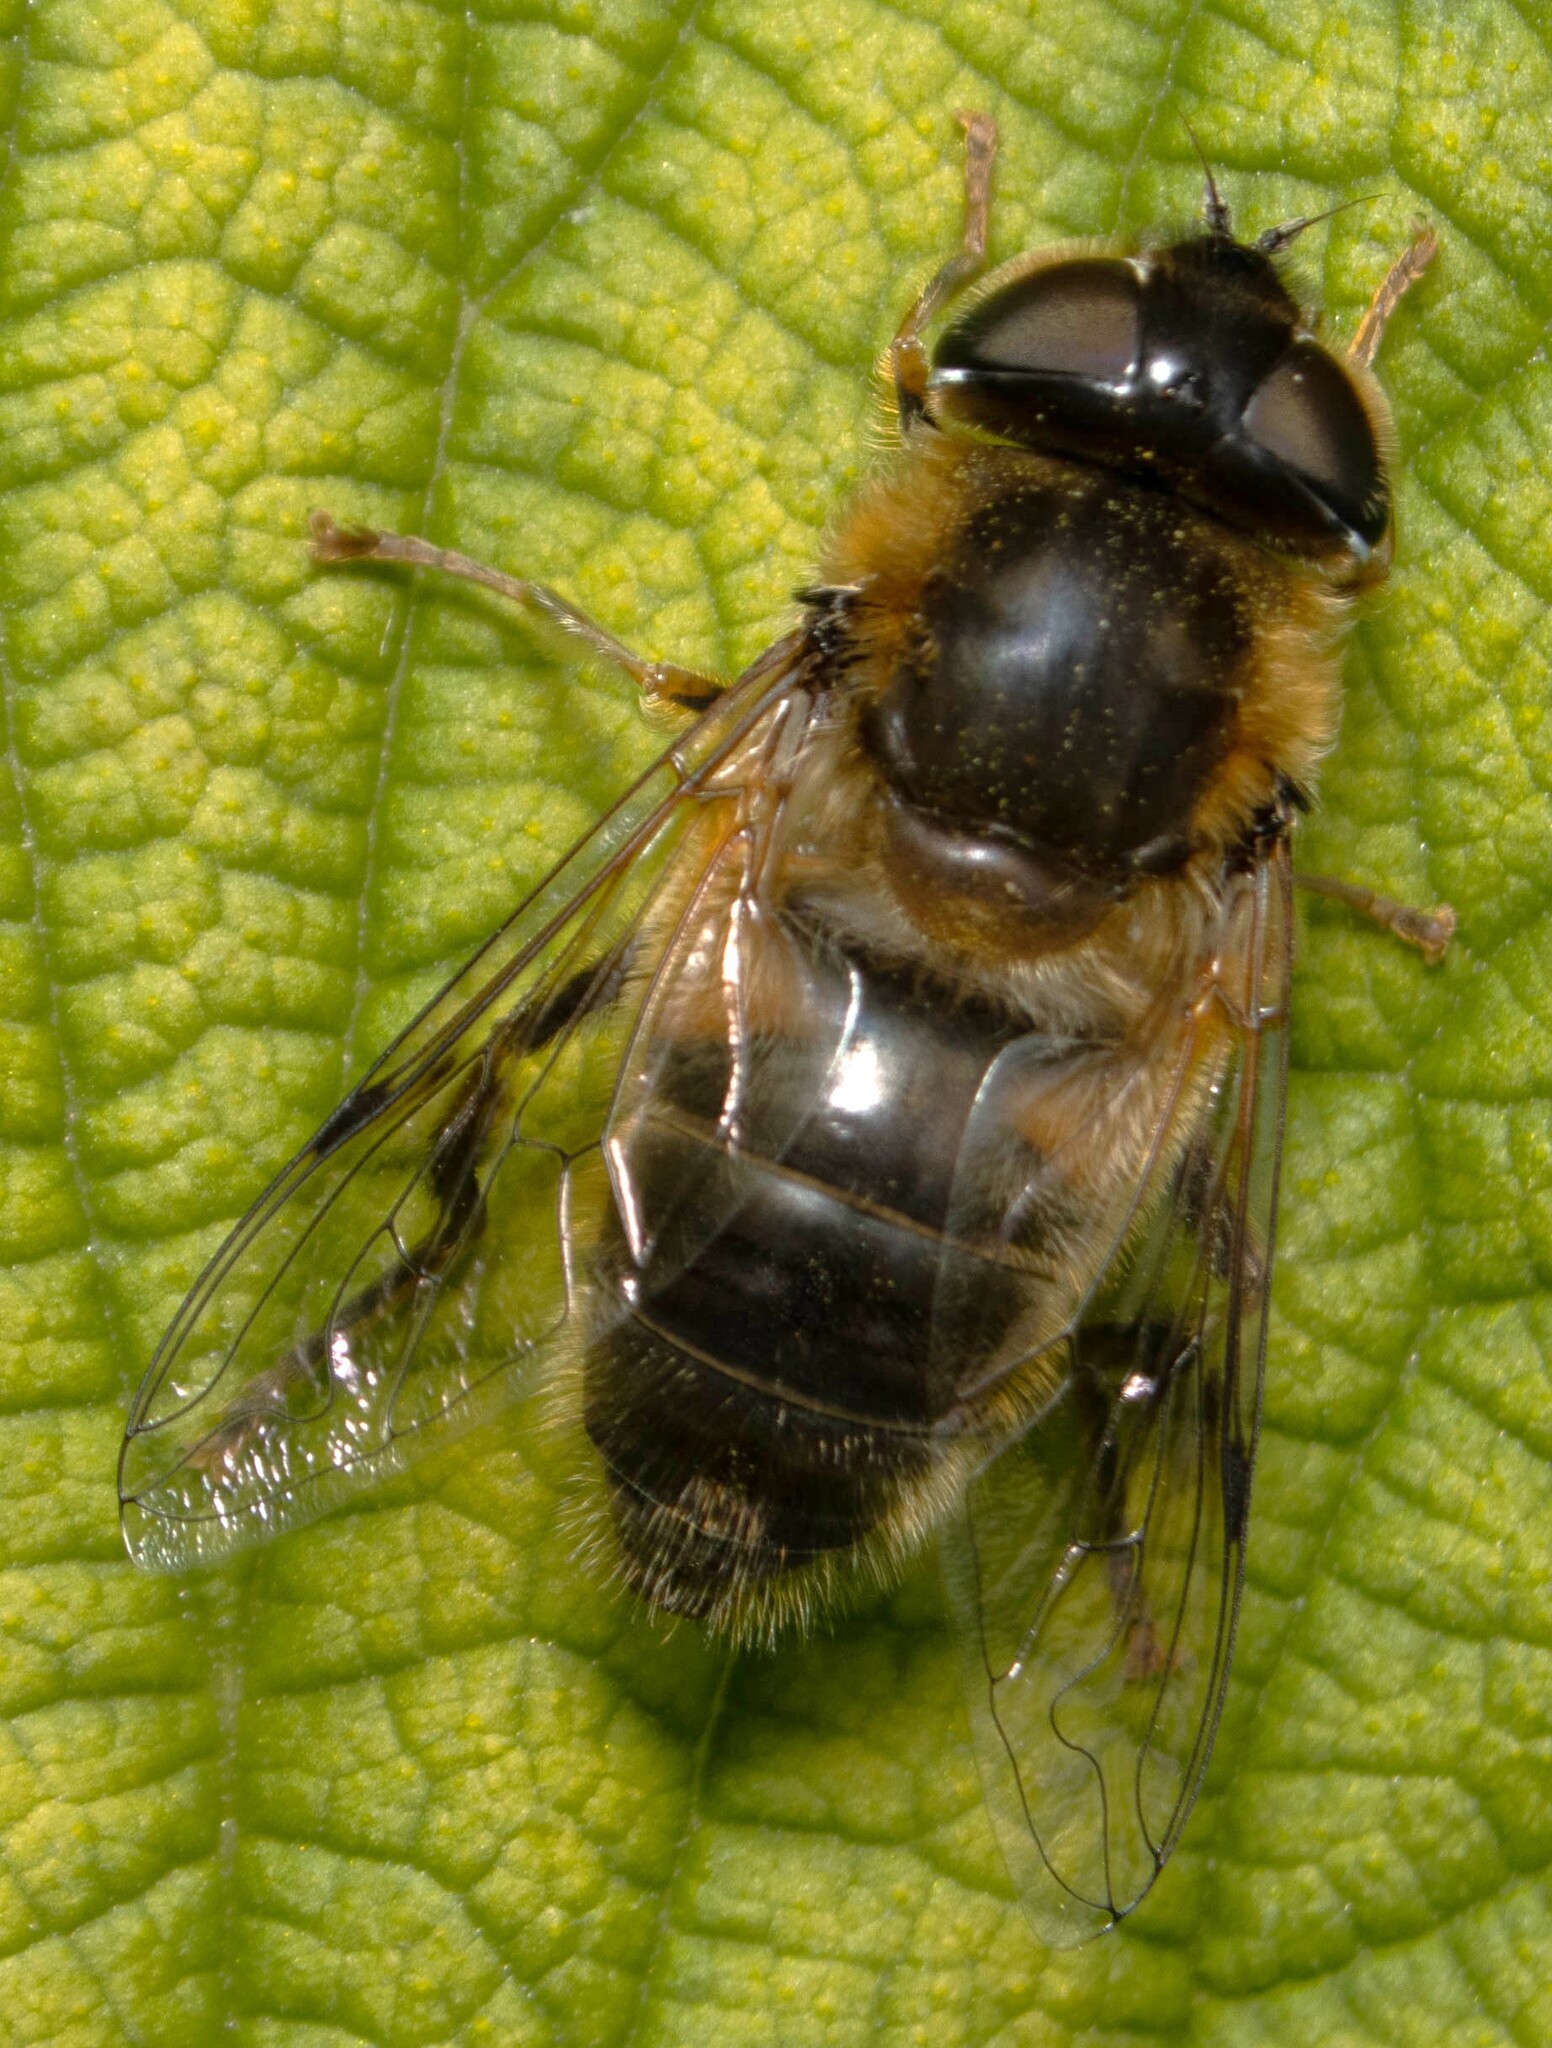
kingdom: Animalia
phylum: Arthropoda
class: Insecta
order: Diptera
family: Syrphidae
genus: Eristalis
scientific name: Eristalis pertinax
